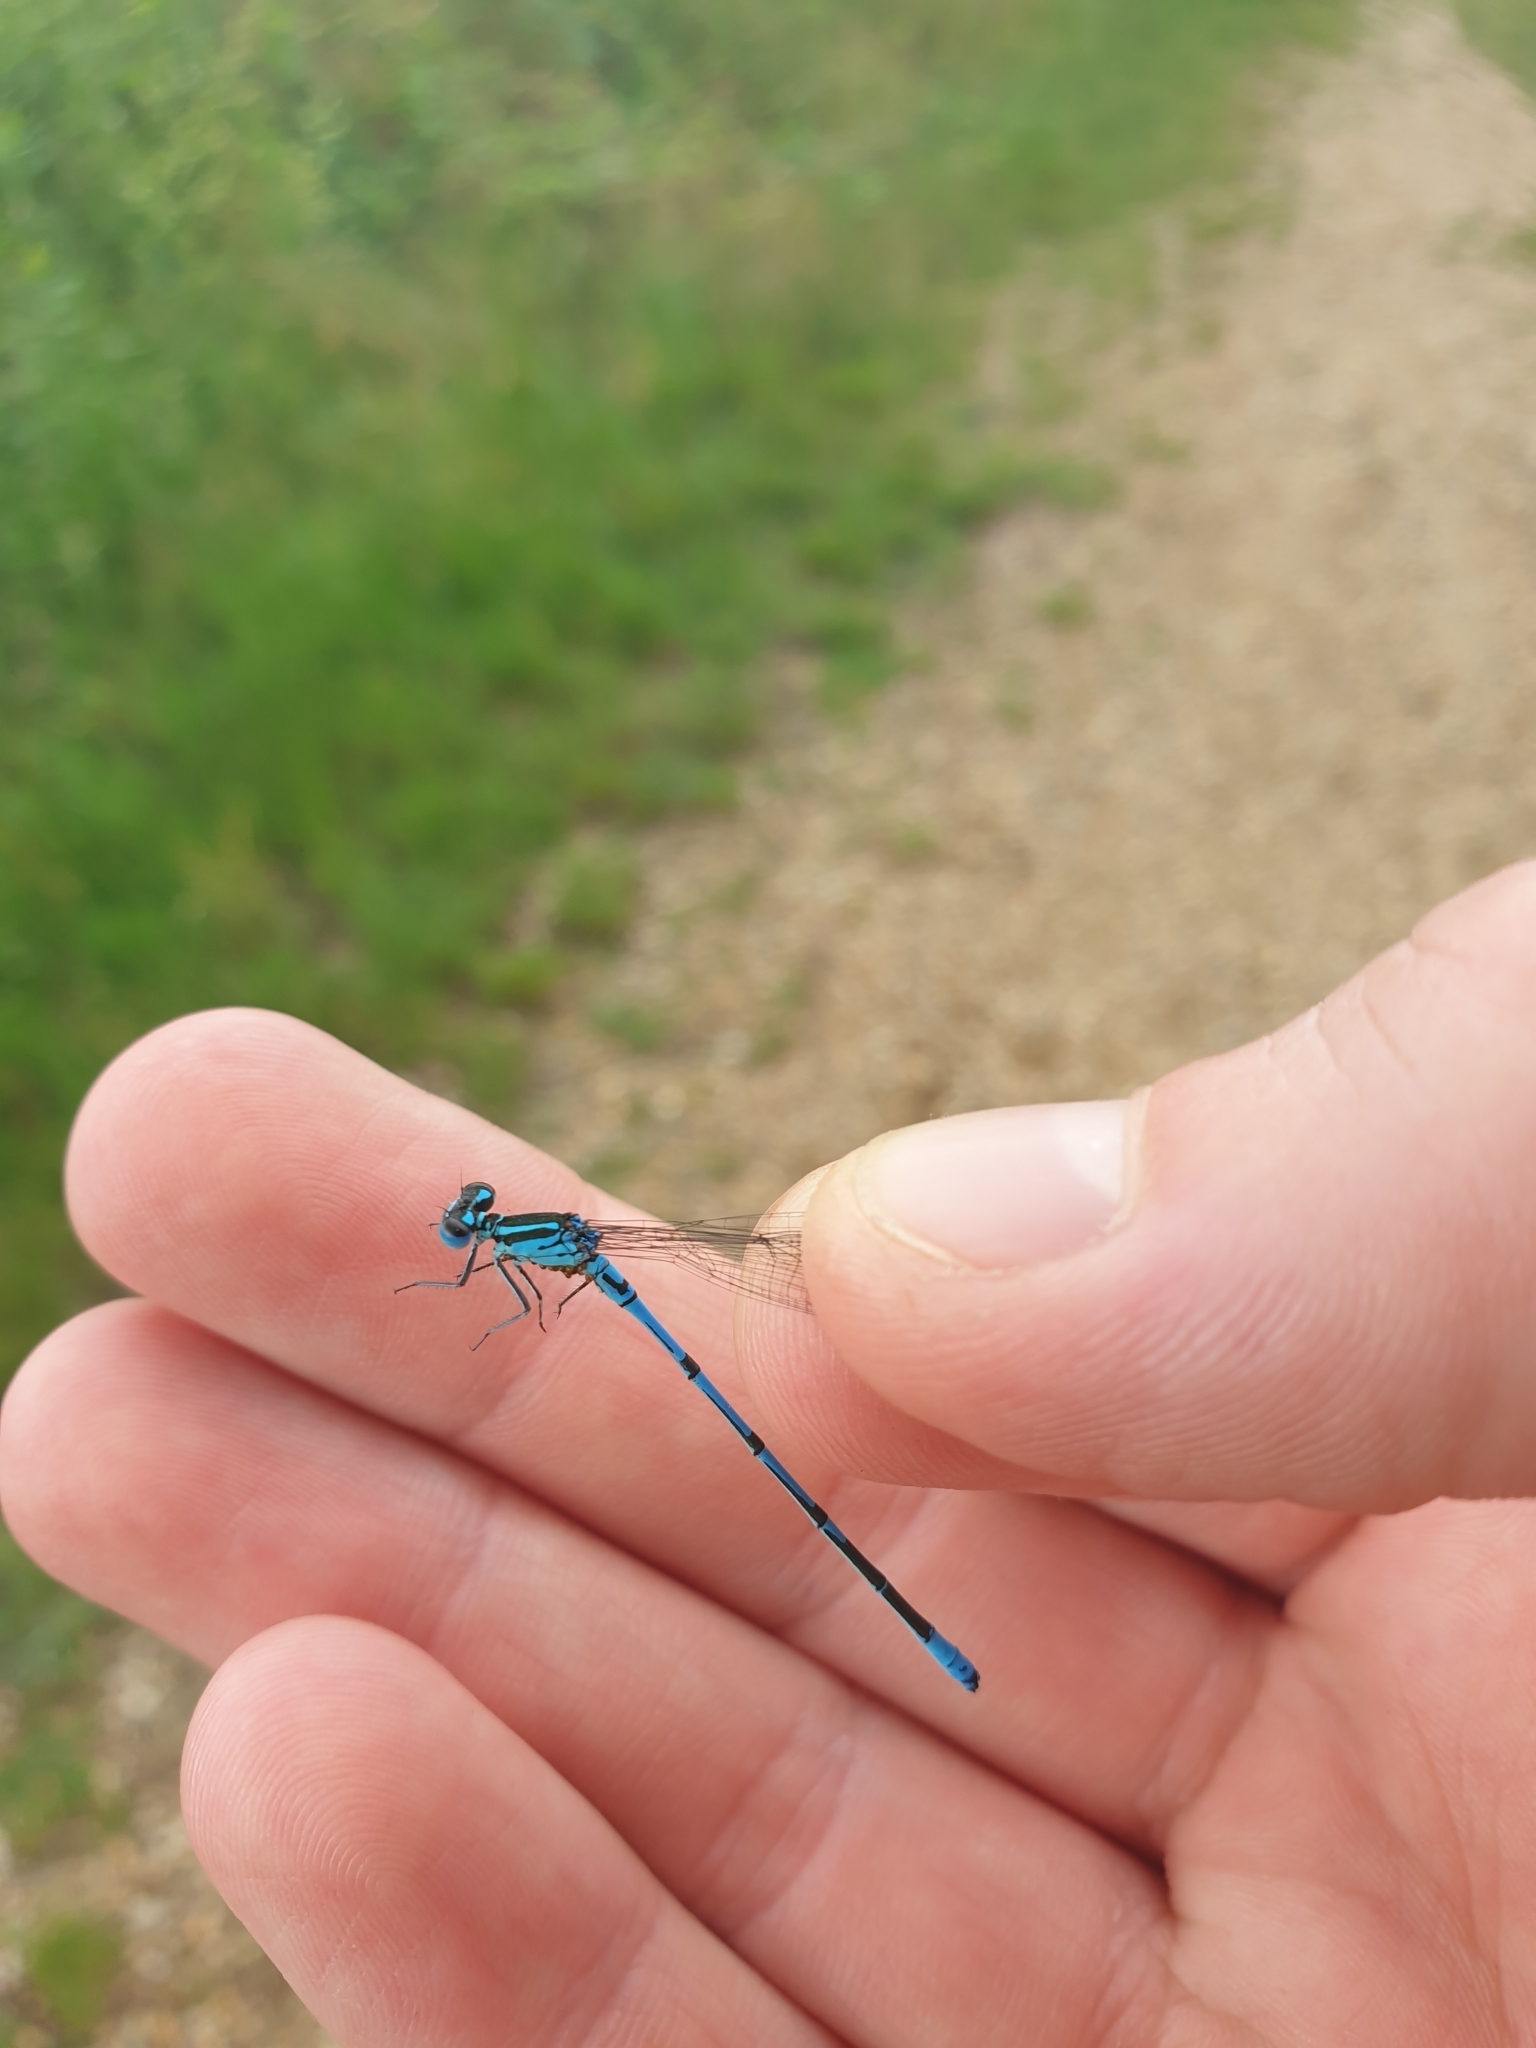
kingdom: Animalia
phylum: Arthropoda
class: Insecta
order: Odonata
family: Coenagrionidae
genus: Coenagrion
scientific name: Coenagrion puella
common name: Azure damselfly
